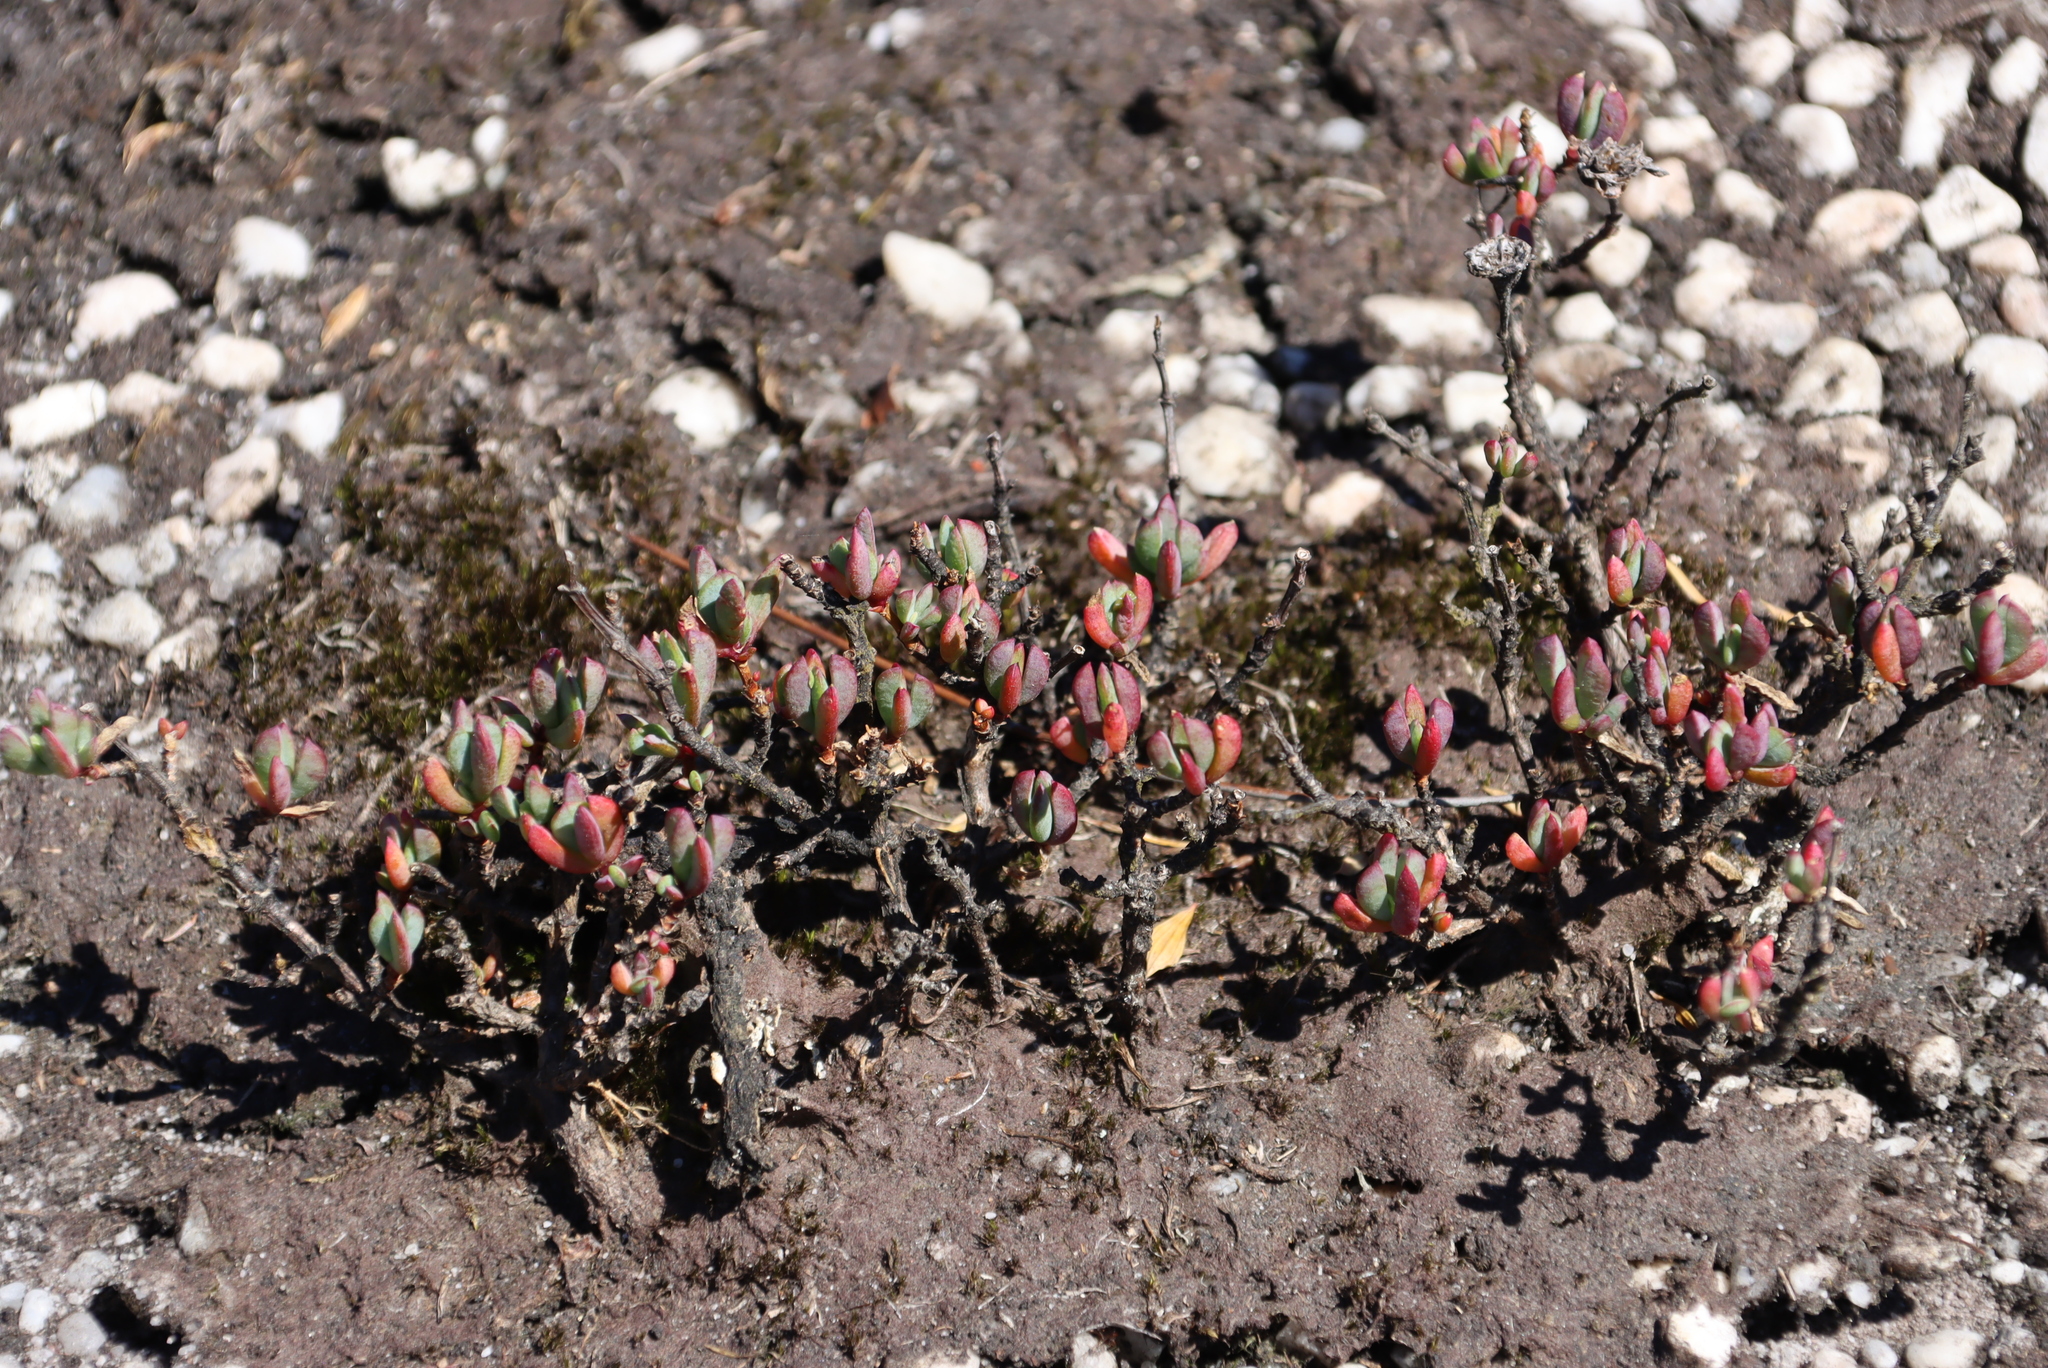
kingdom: Plantae
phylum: Tracheophyta
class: Magnoliopsida
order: Caryophyllales
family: Aizoaceae
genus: Oscularia
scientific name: Oscularia falciformis
